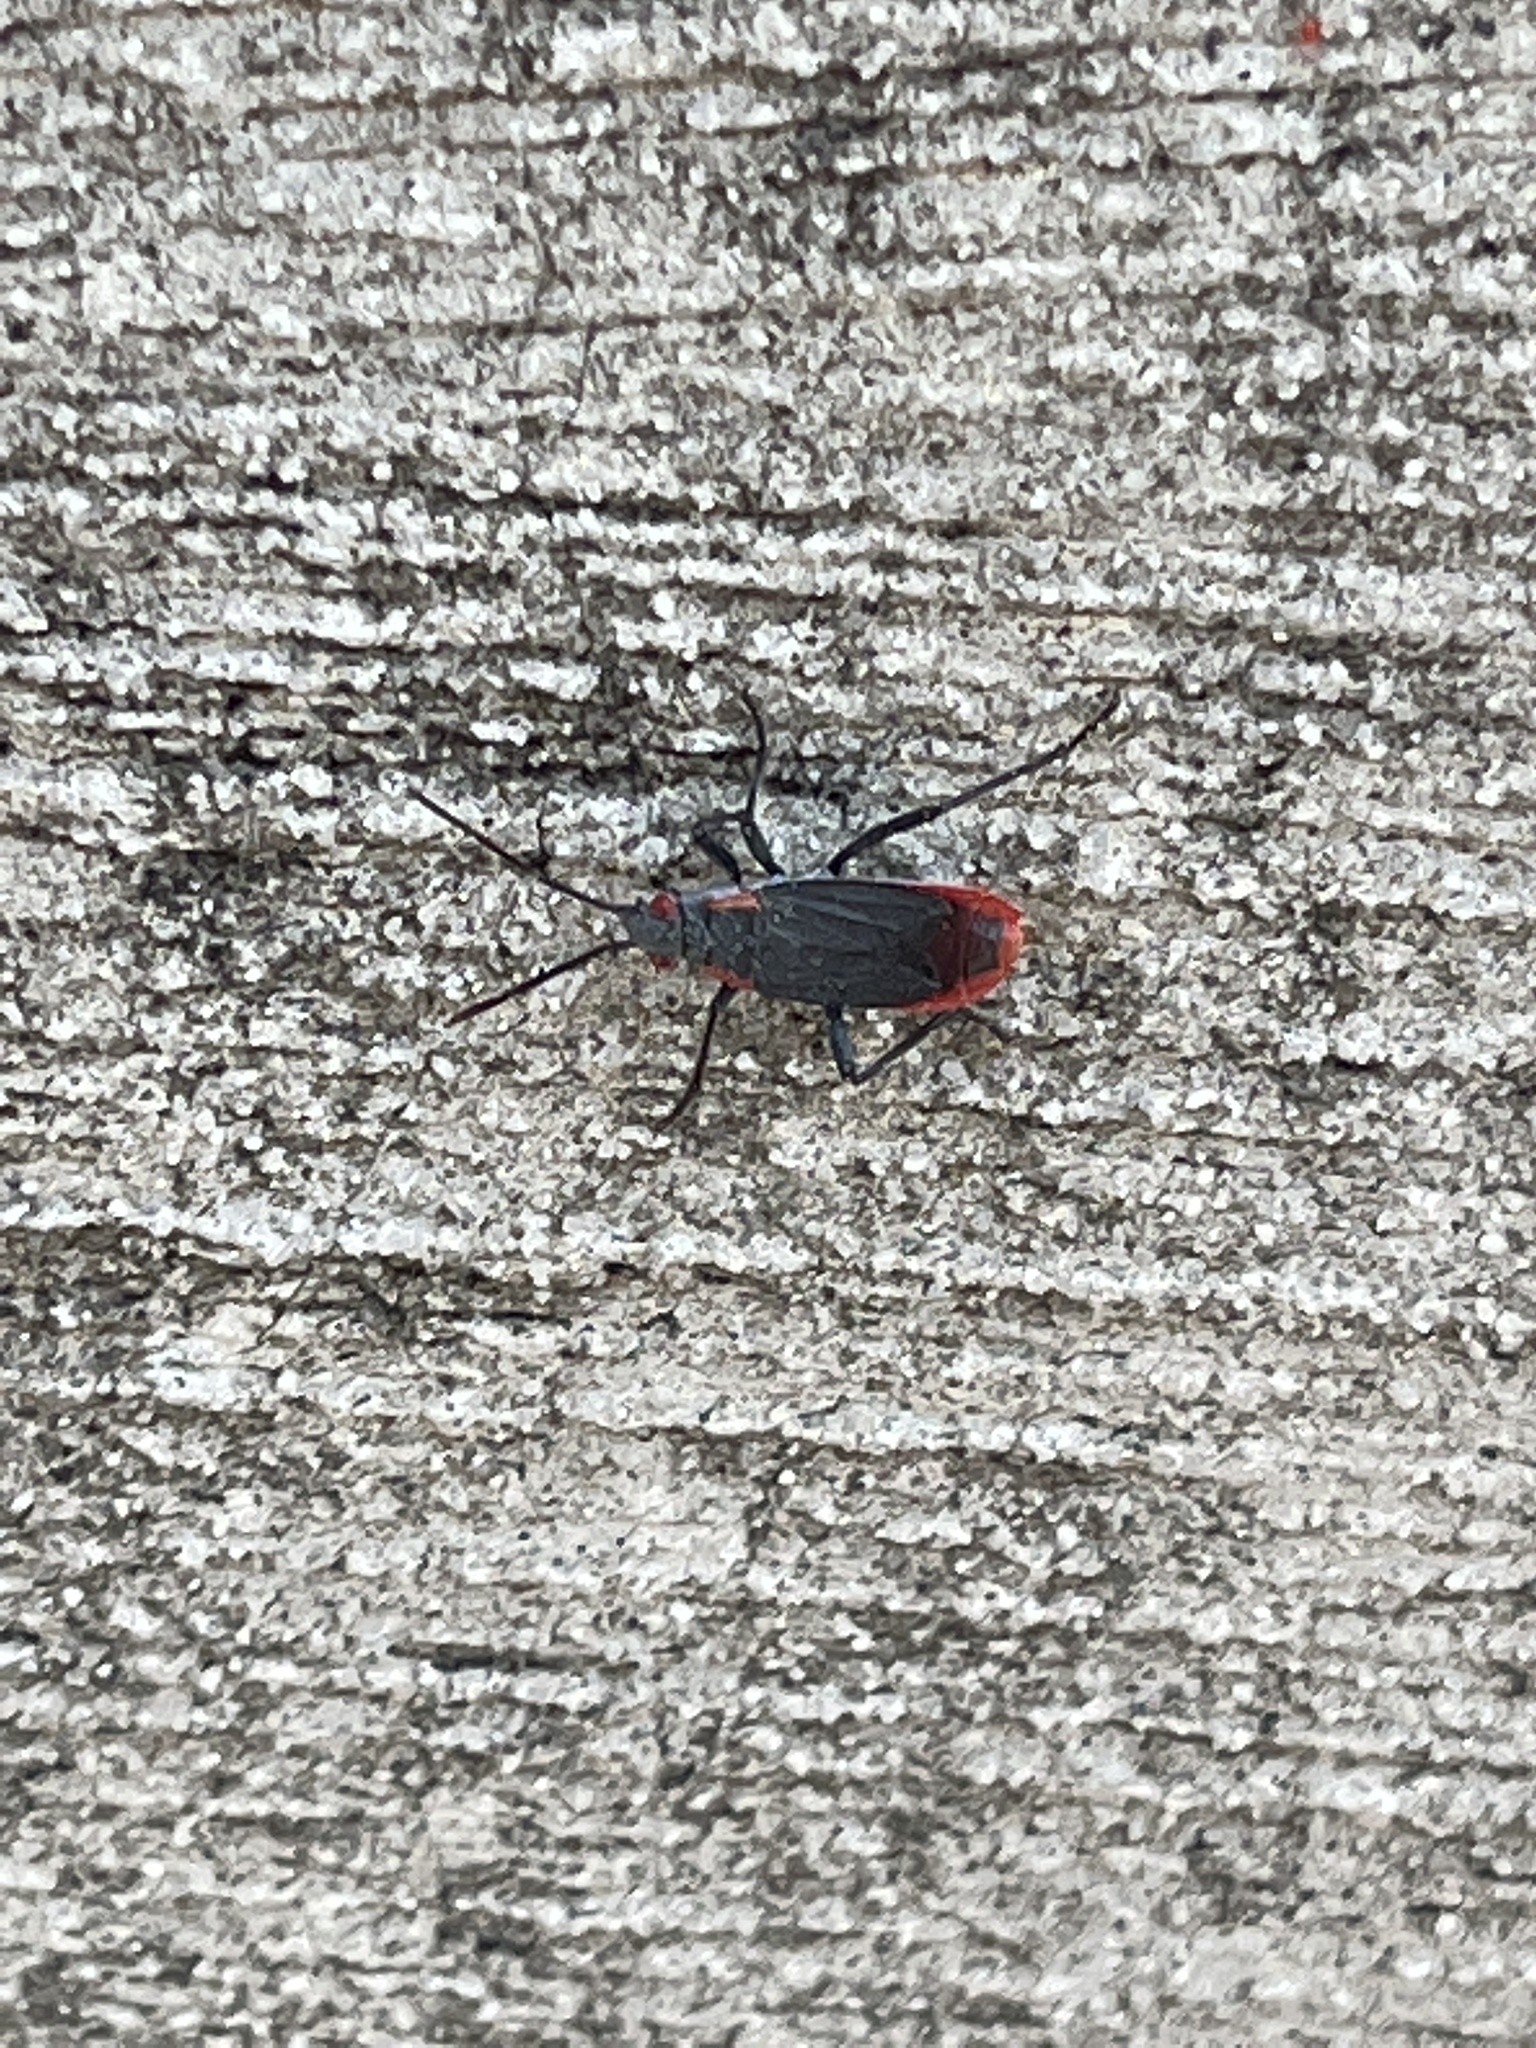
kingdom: Animalia
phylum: Arthropoda
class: Insecta
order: Hemiptera
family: Rhopalidae
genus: Jadera
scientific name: Jadera haematoloma
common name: Red-shouldered bug
